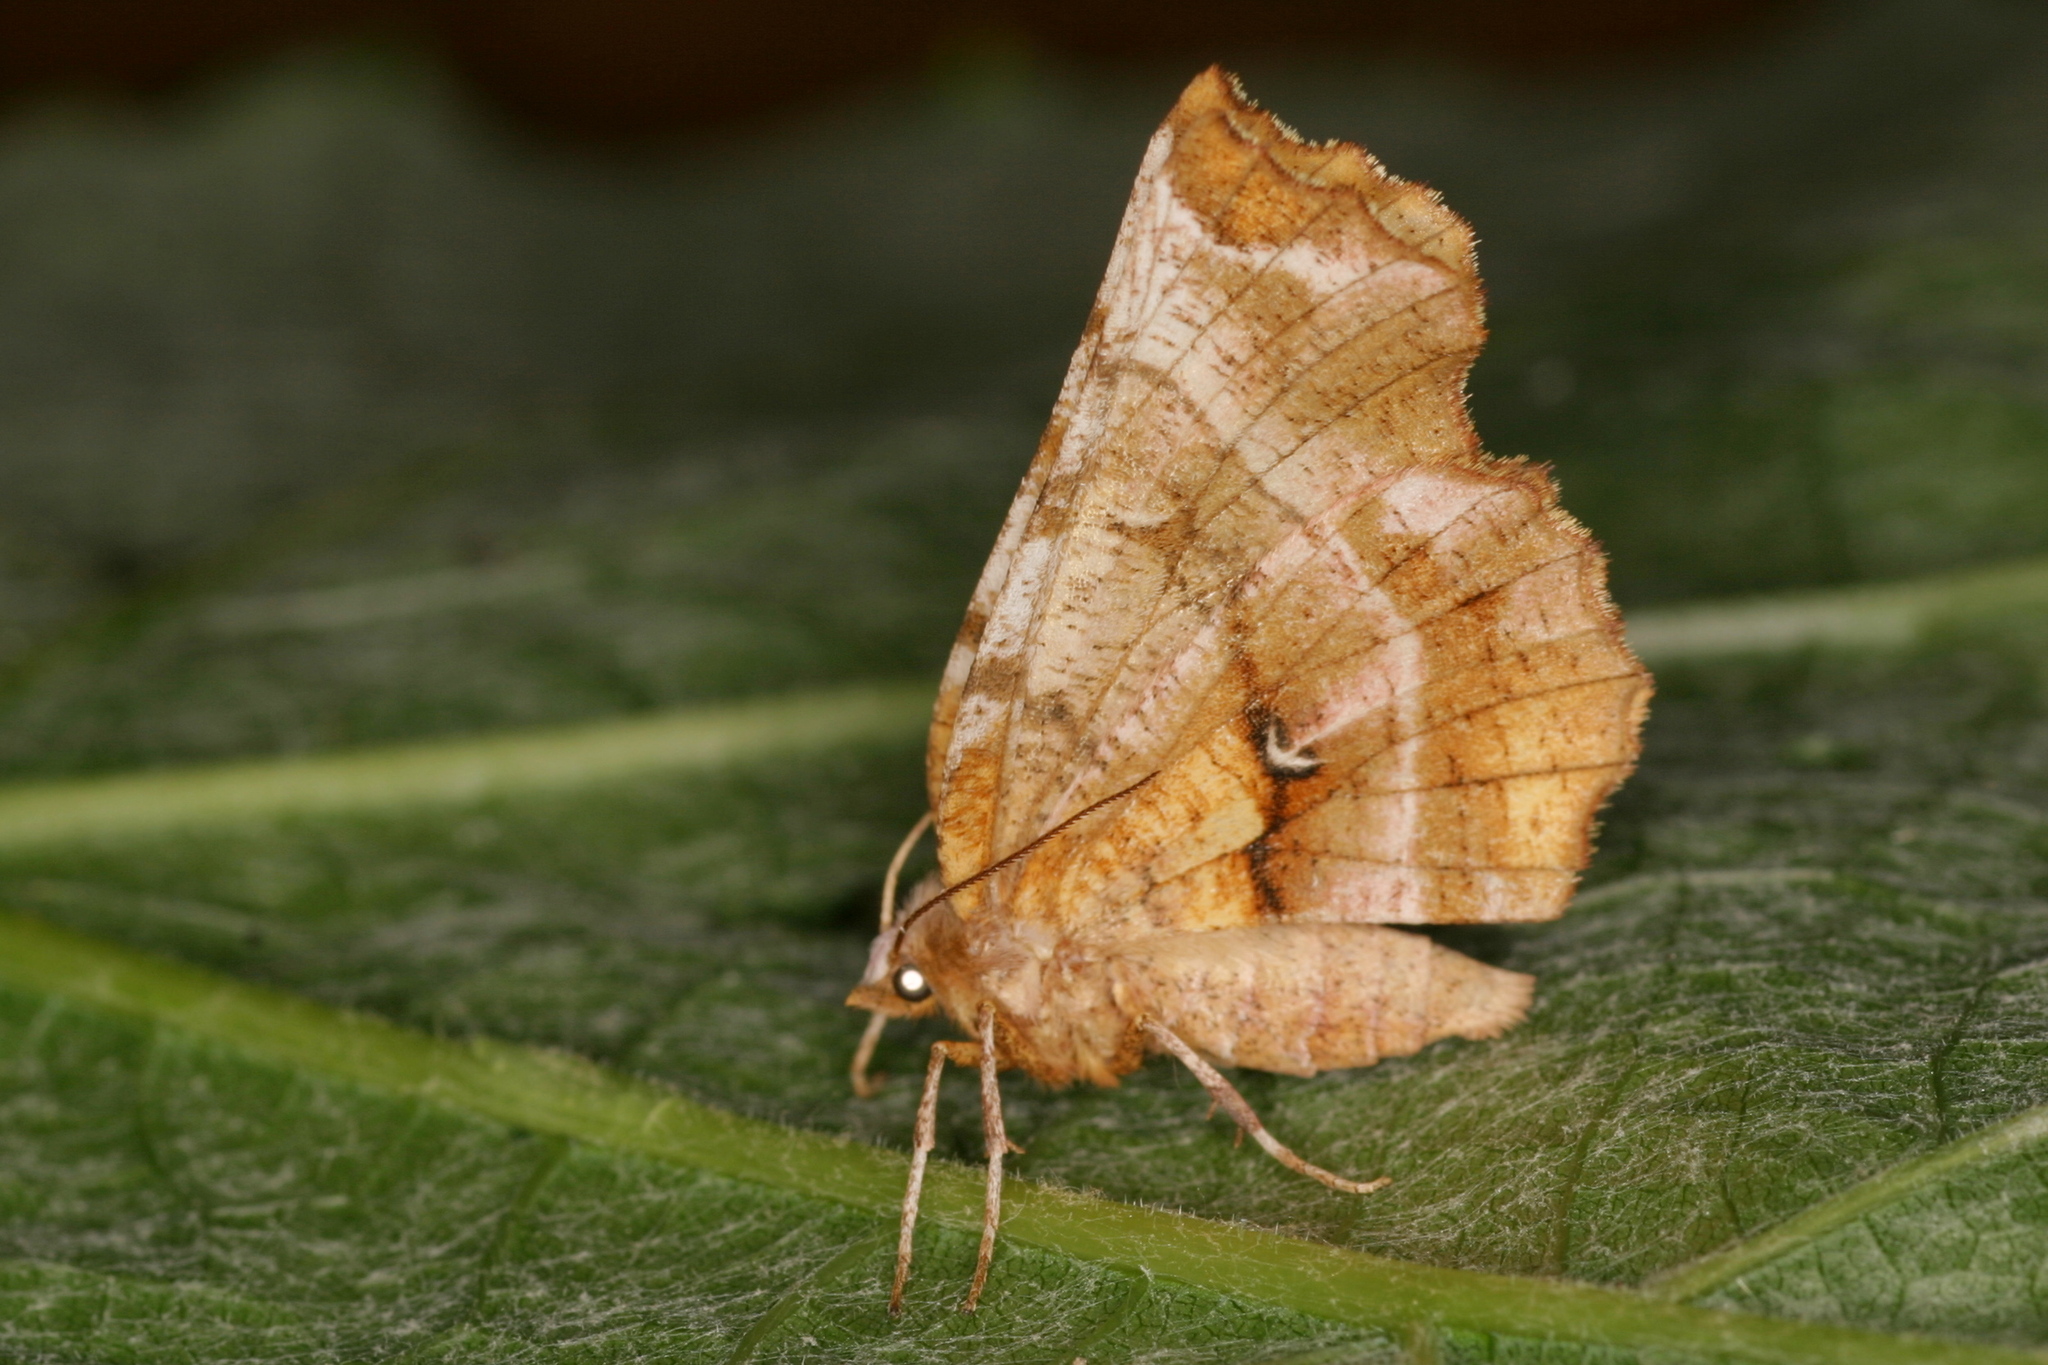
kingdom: Animalia
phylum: Arthropoda
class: Insecta
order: Lepidoptera
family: Geometridae
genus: Selenia
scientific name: Selenia dentaria
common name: Early thorn
